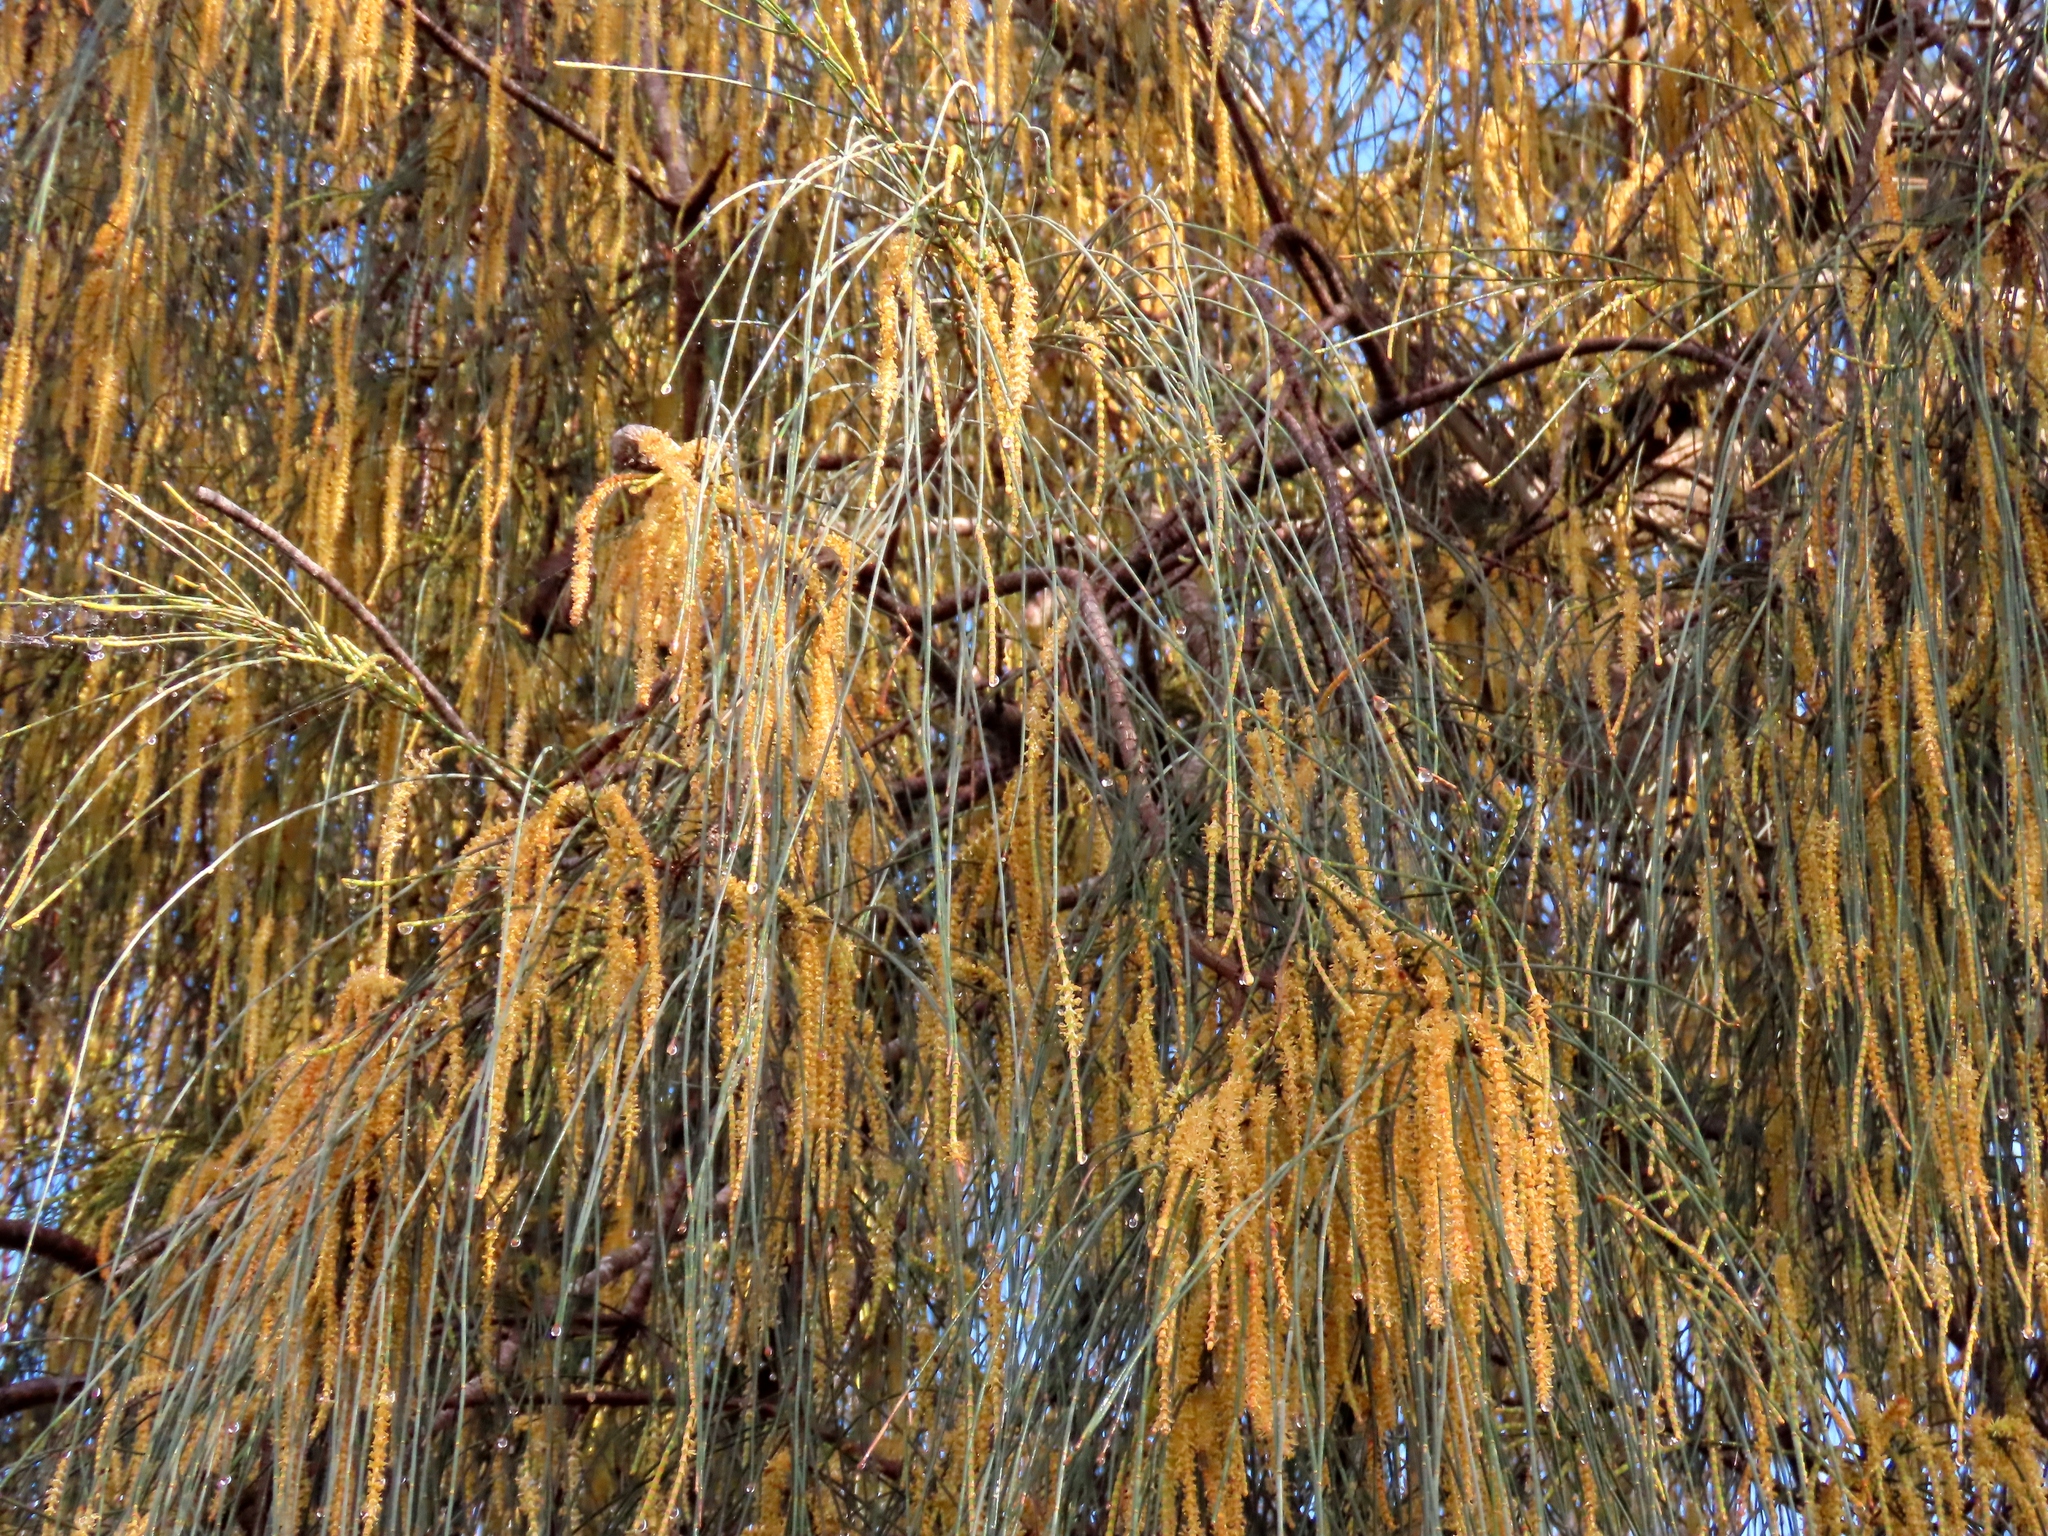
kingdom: Plantae
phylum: Tracheophyta
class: Magnoliopsida
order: Fagales
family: Casuarinaceae
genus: Allocasuarina
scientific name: Allocasuarina verticillata
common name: Drooping she-oak
